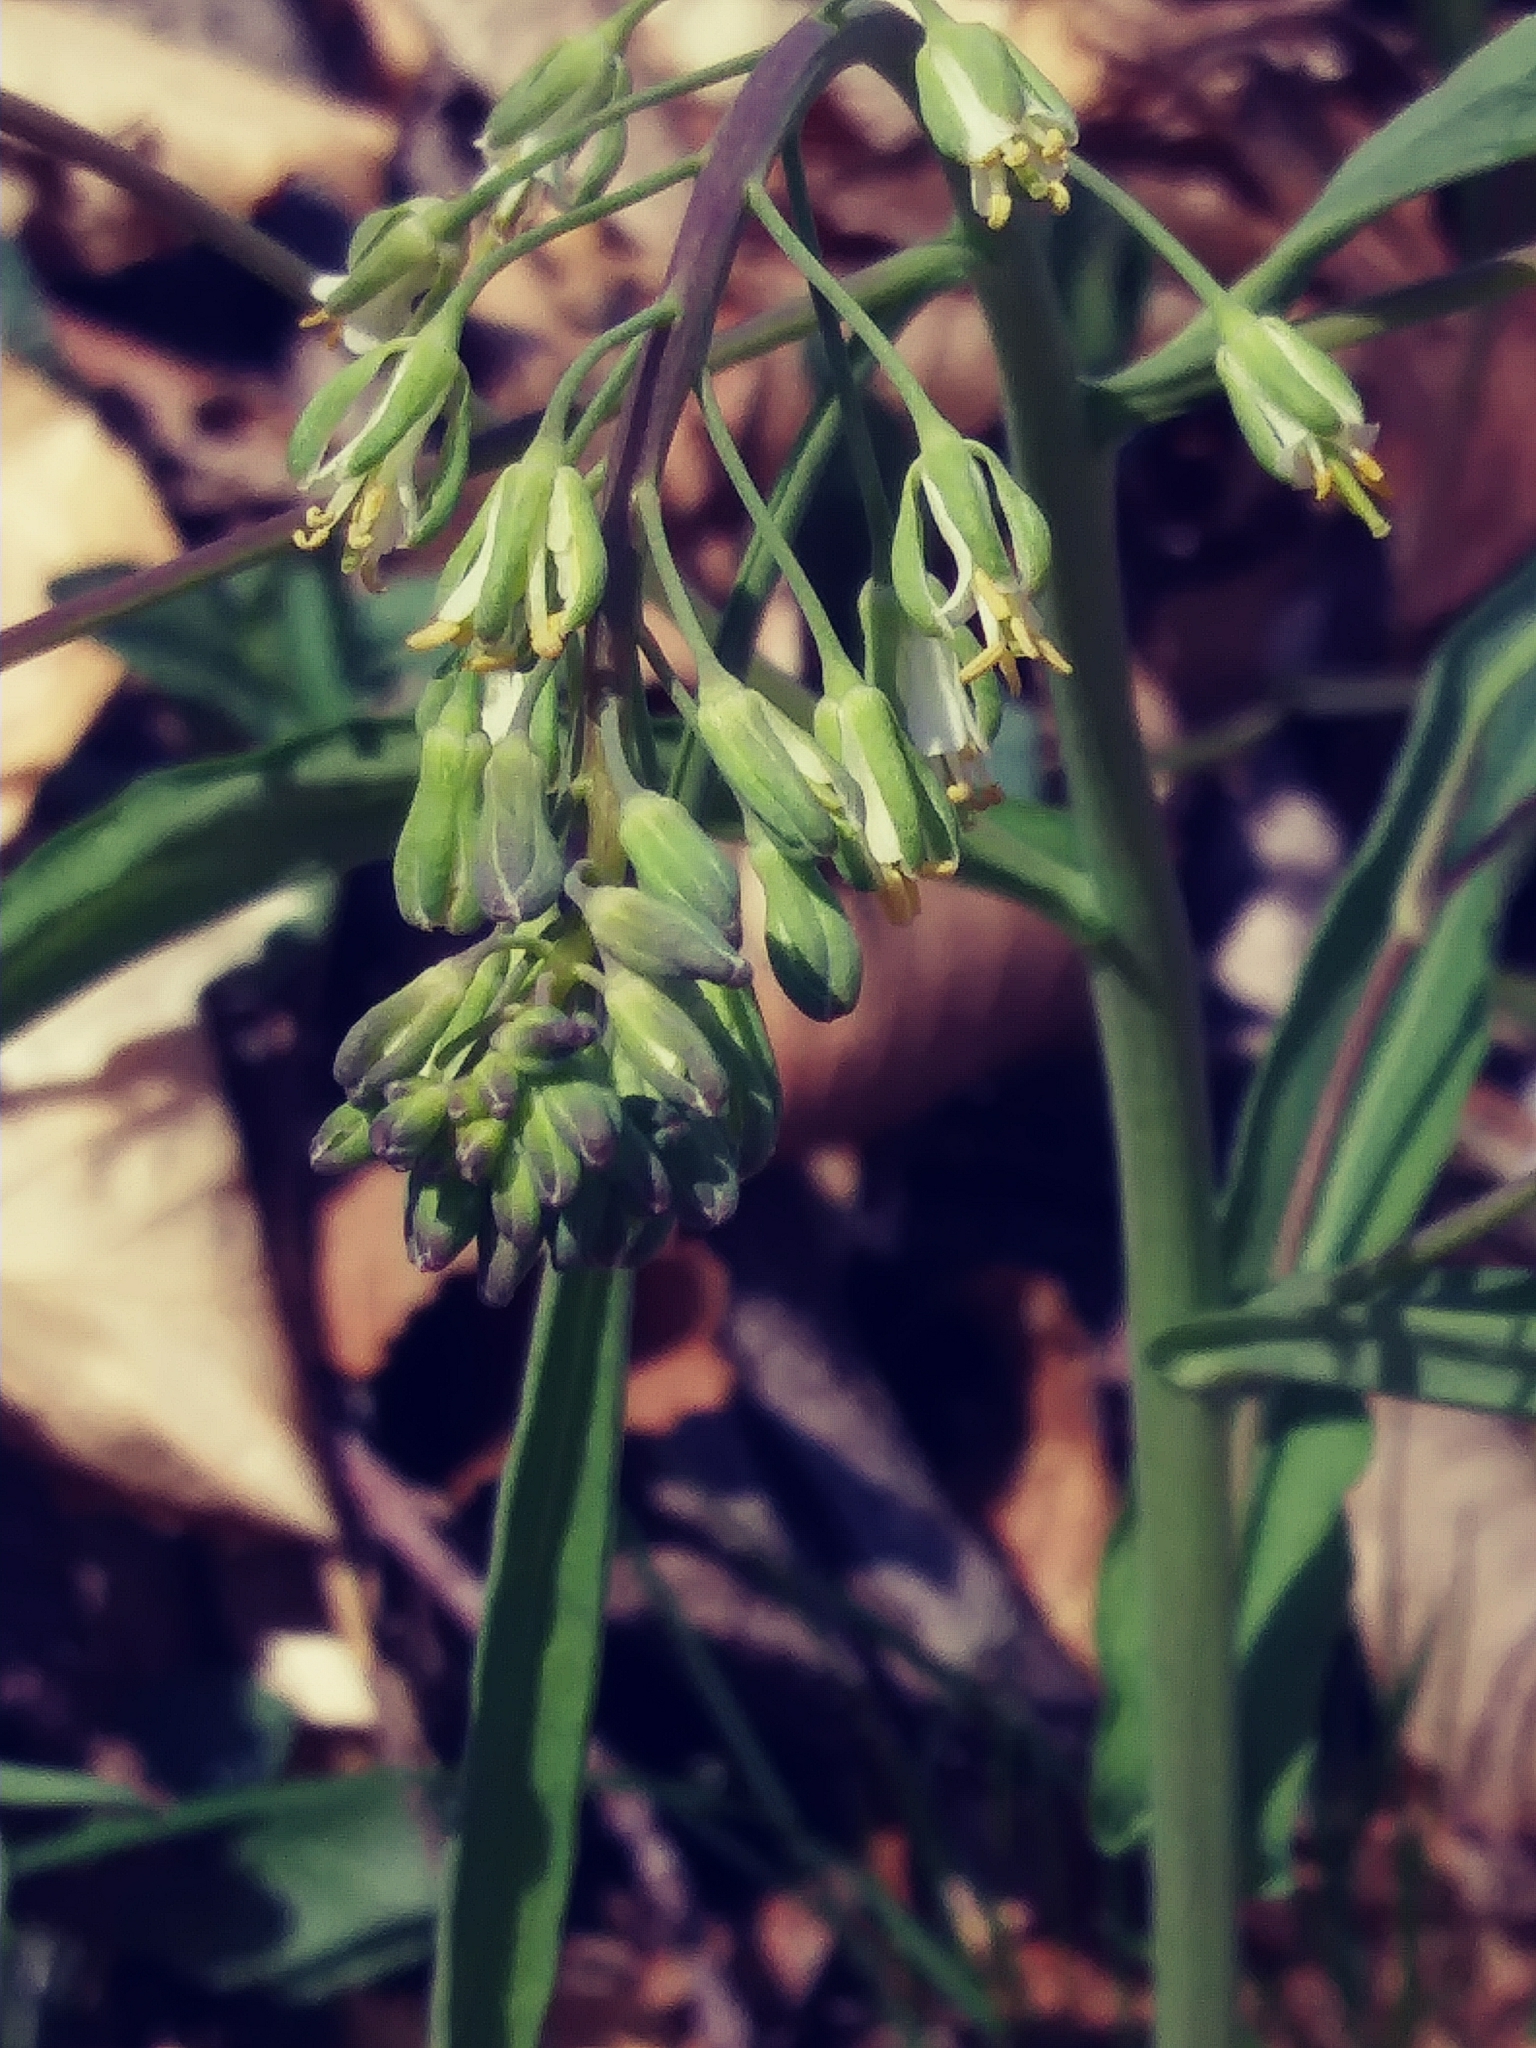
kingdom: Plantae
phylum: Tracheophyta
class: Magnoliopsida
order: Brassicales
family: Brassicaceae
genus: Borodinia
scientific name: Borodinia laevigata
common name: Smooth rockcress
